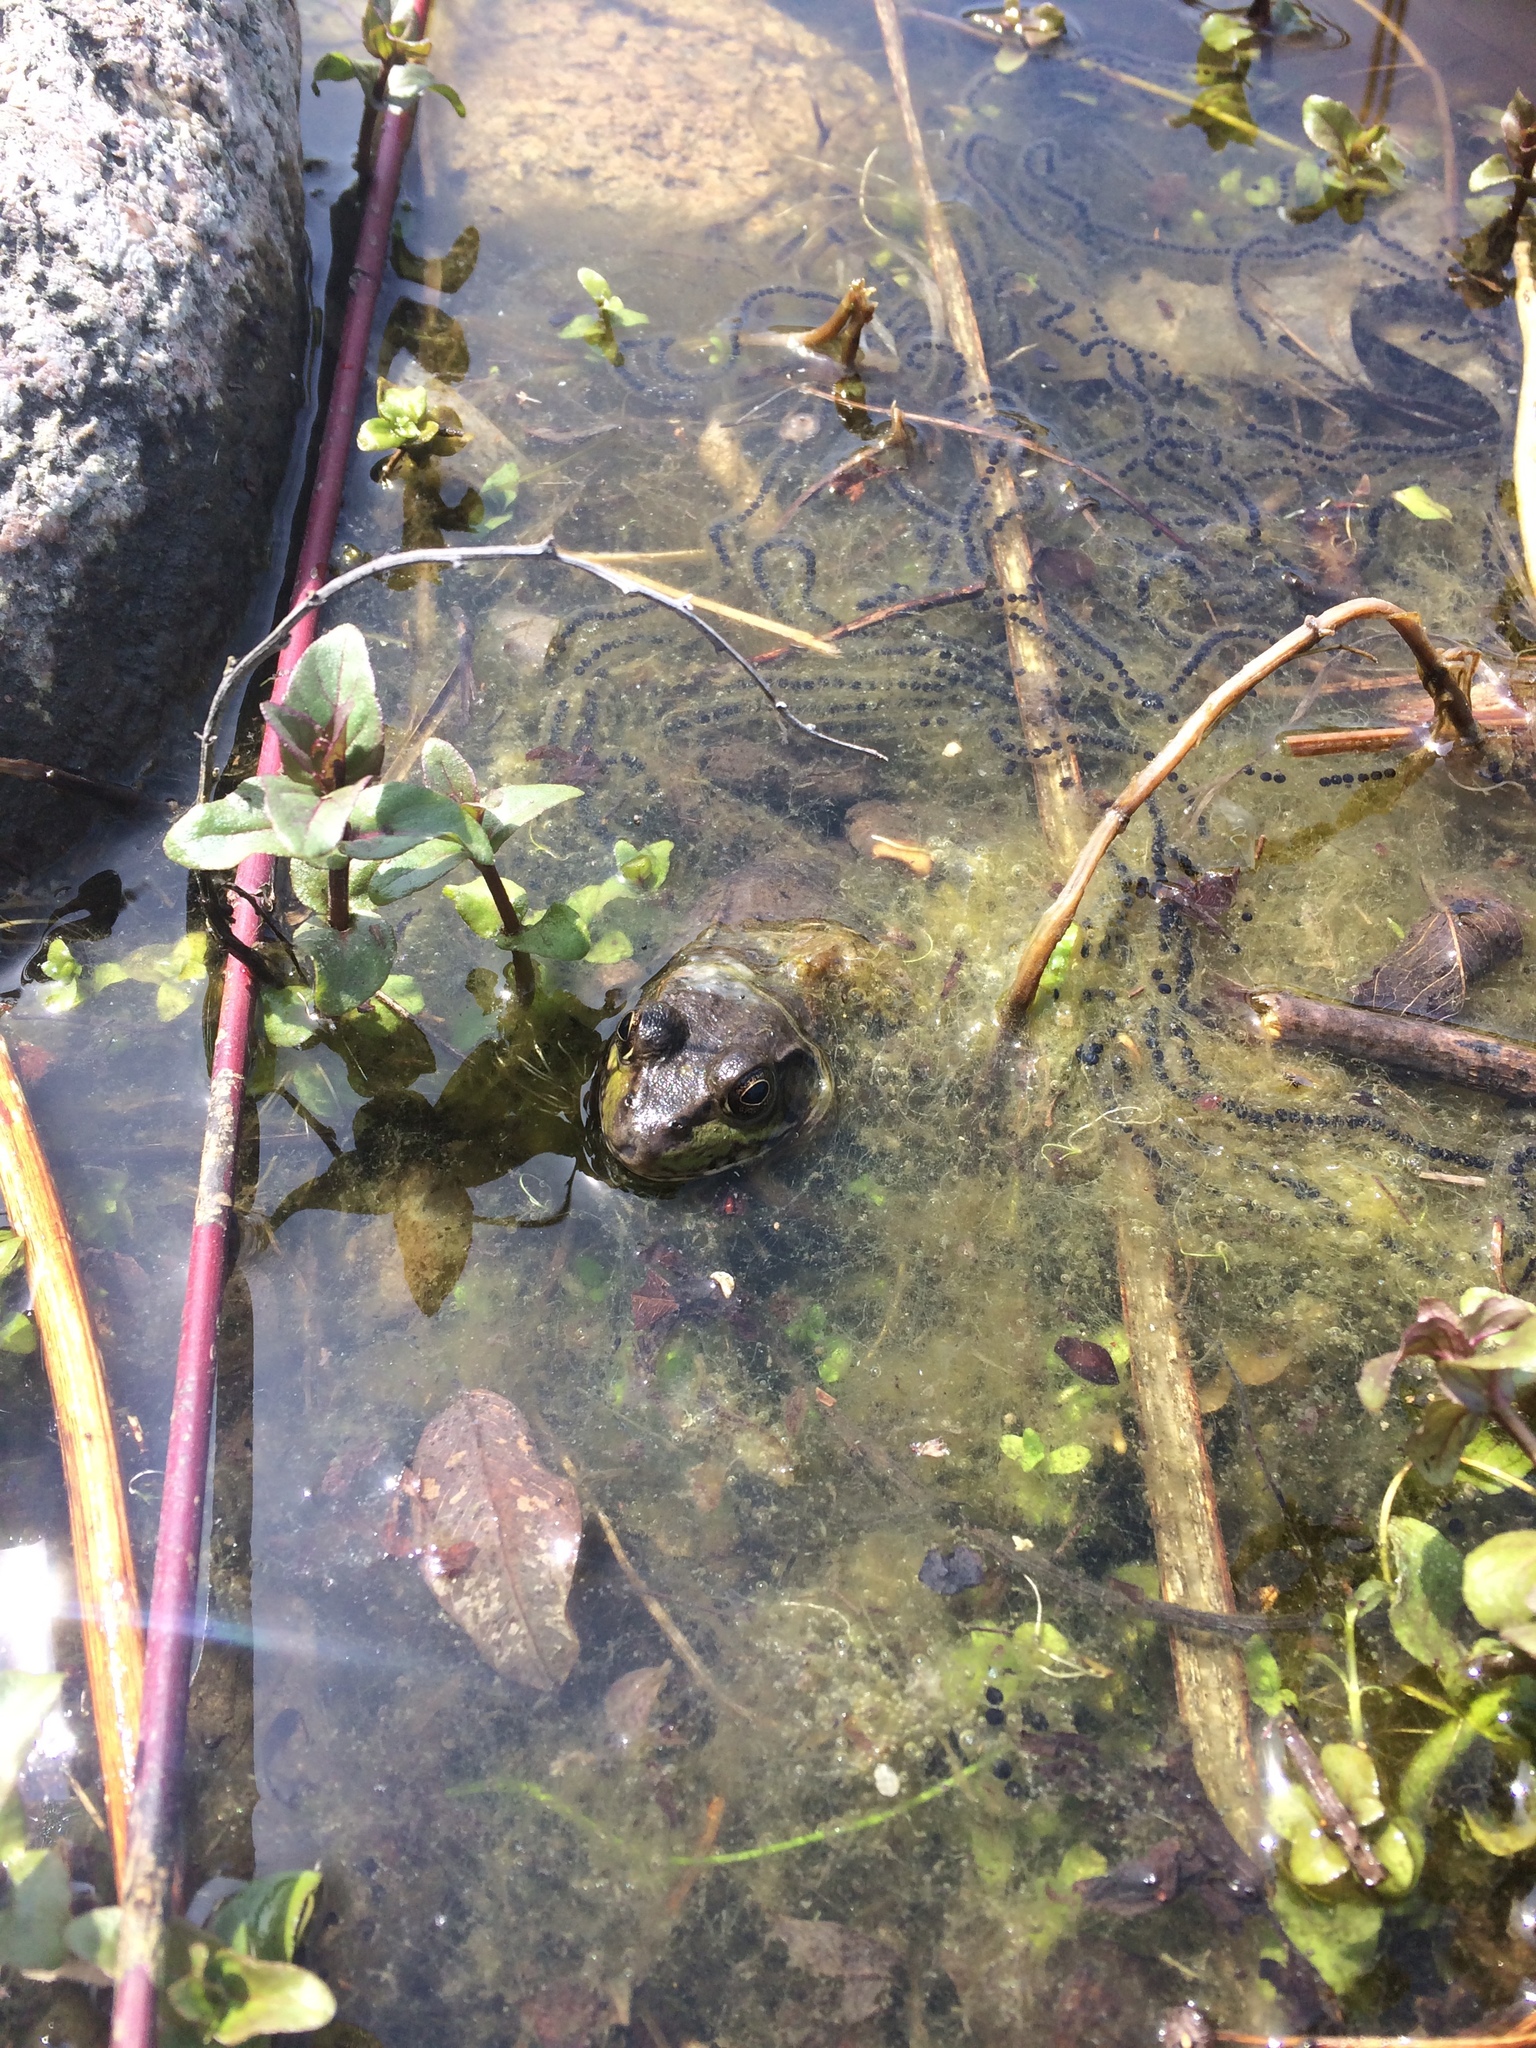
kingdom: Animalia
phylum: Chordata
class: Amphibia
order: Anura
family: Ranidae
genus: Lithobates
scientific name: Lithobates clamitans
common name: Green frog
